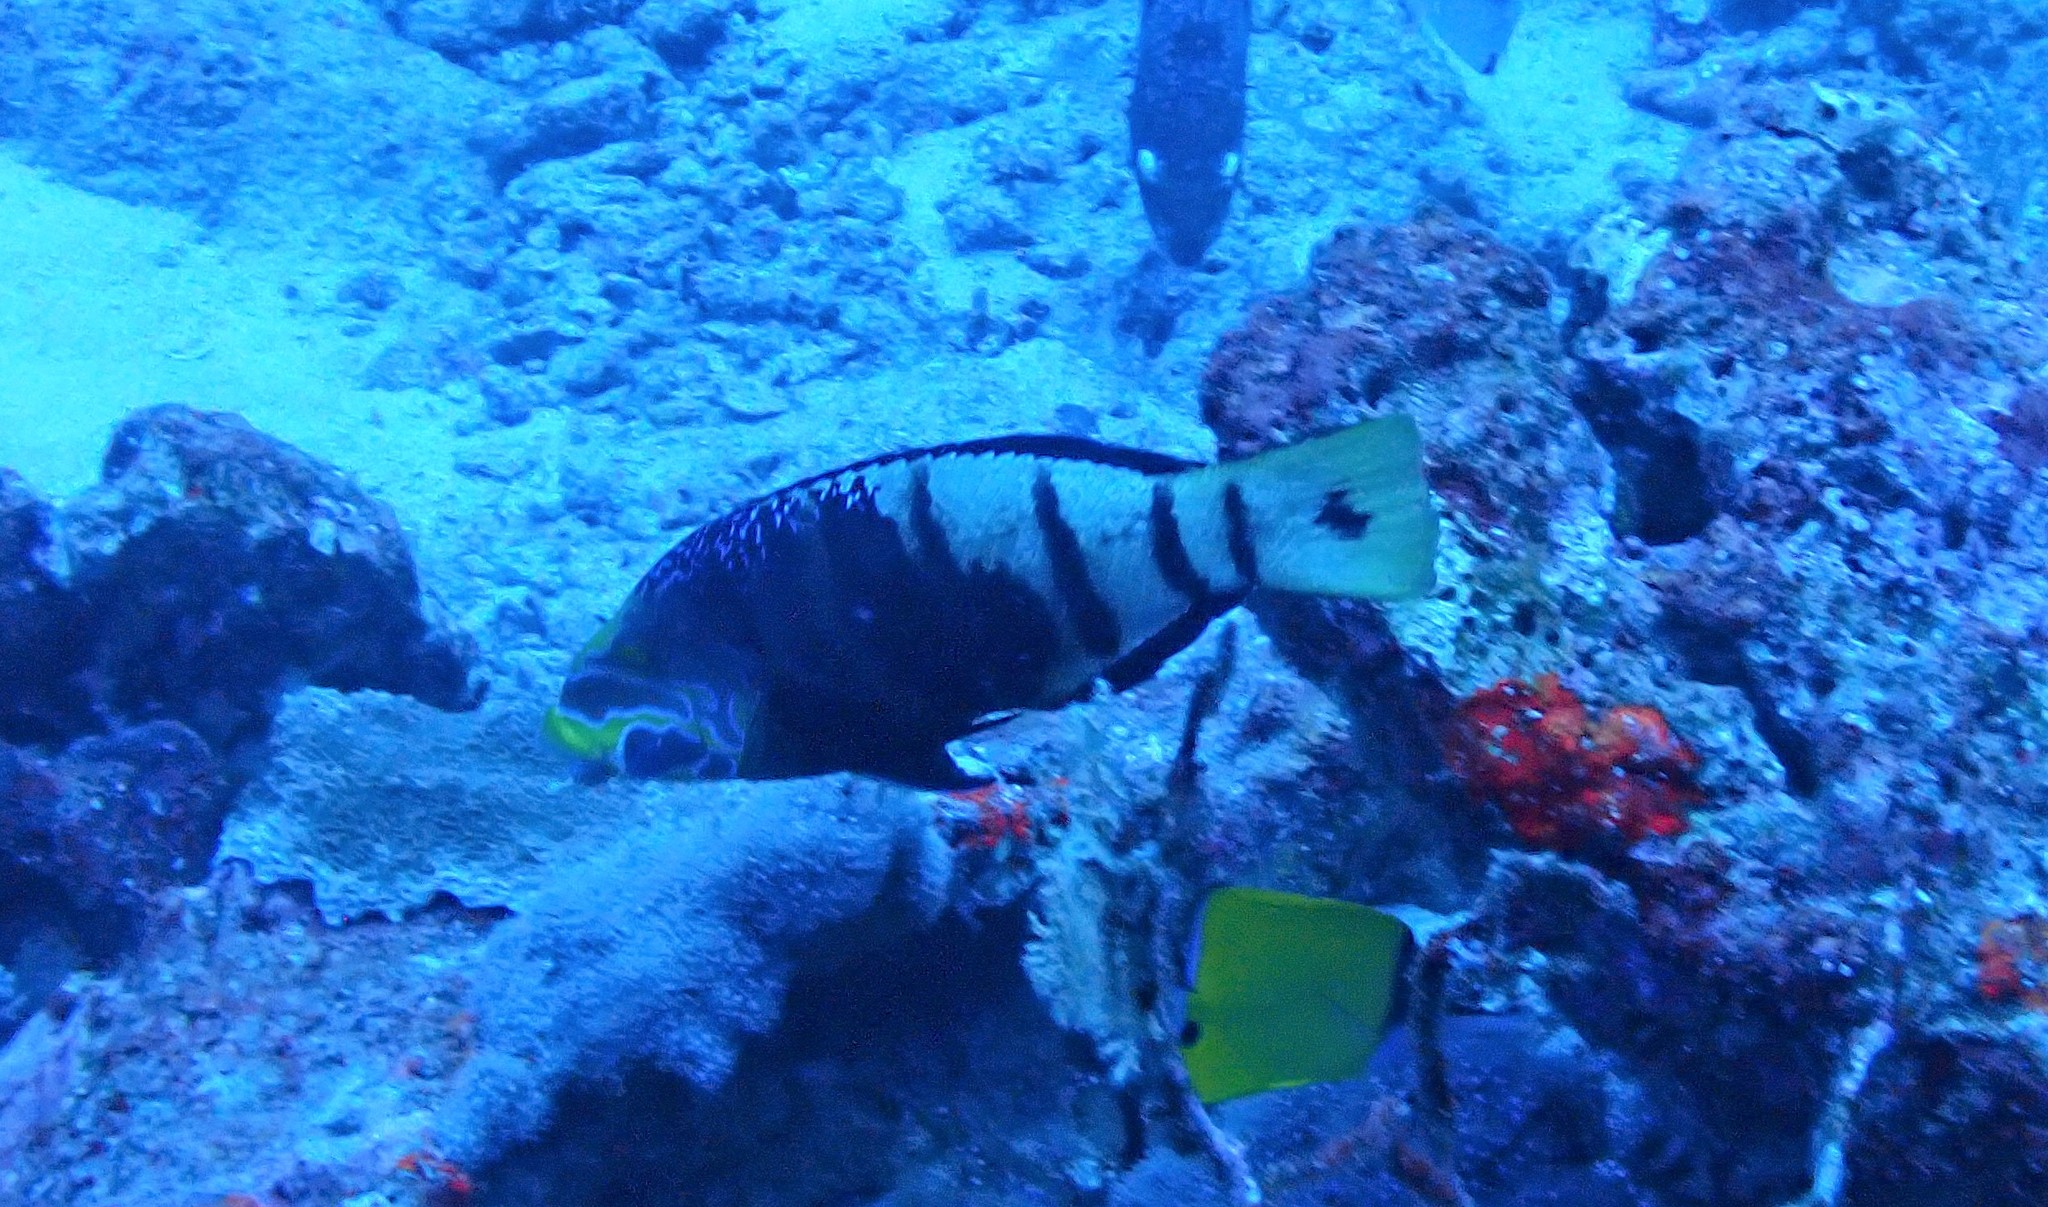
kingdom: Animalia
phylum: Chordata
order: Perciformes
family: Labridae
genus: Hemigymnus
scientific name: Hemigymnus fasciatus
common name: Barred thicklip
